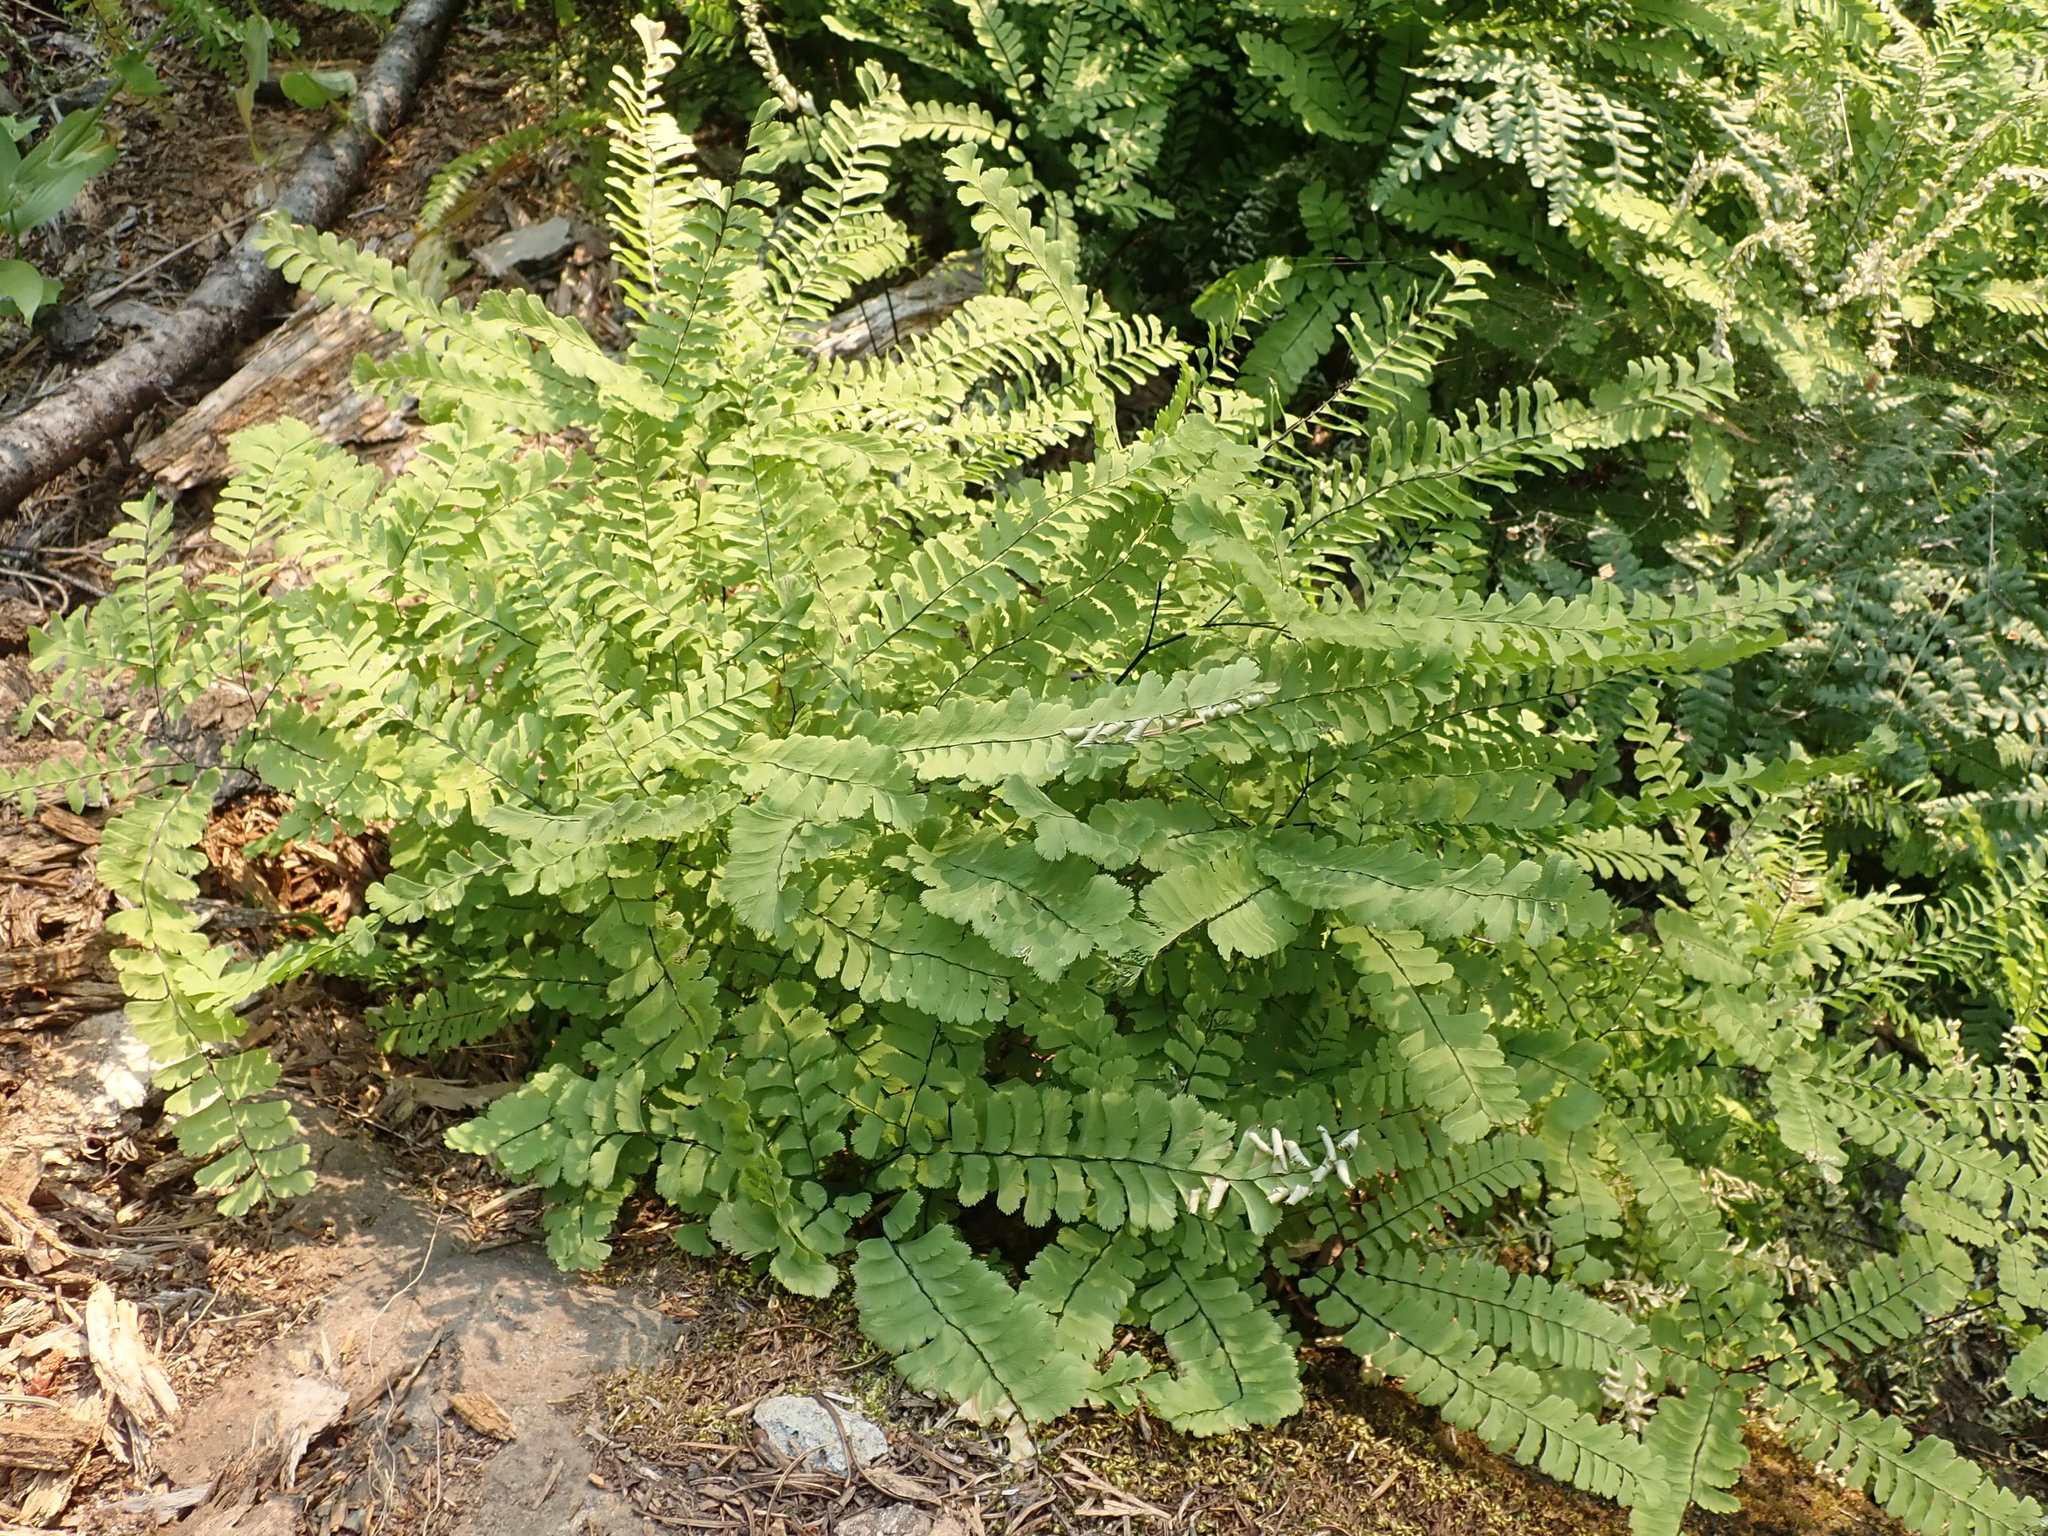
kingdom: Plantae
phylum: Tracheophyta
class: Polypodiopsida
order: Polypodiales
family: Pteridaceae
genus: Adiantum
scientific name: Adiantum aleuticum
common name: Aleutian maidenhair fern
